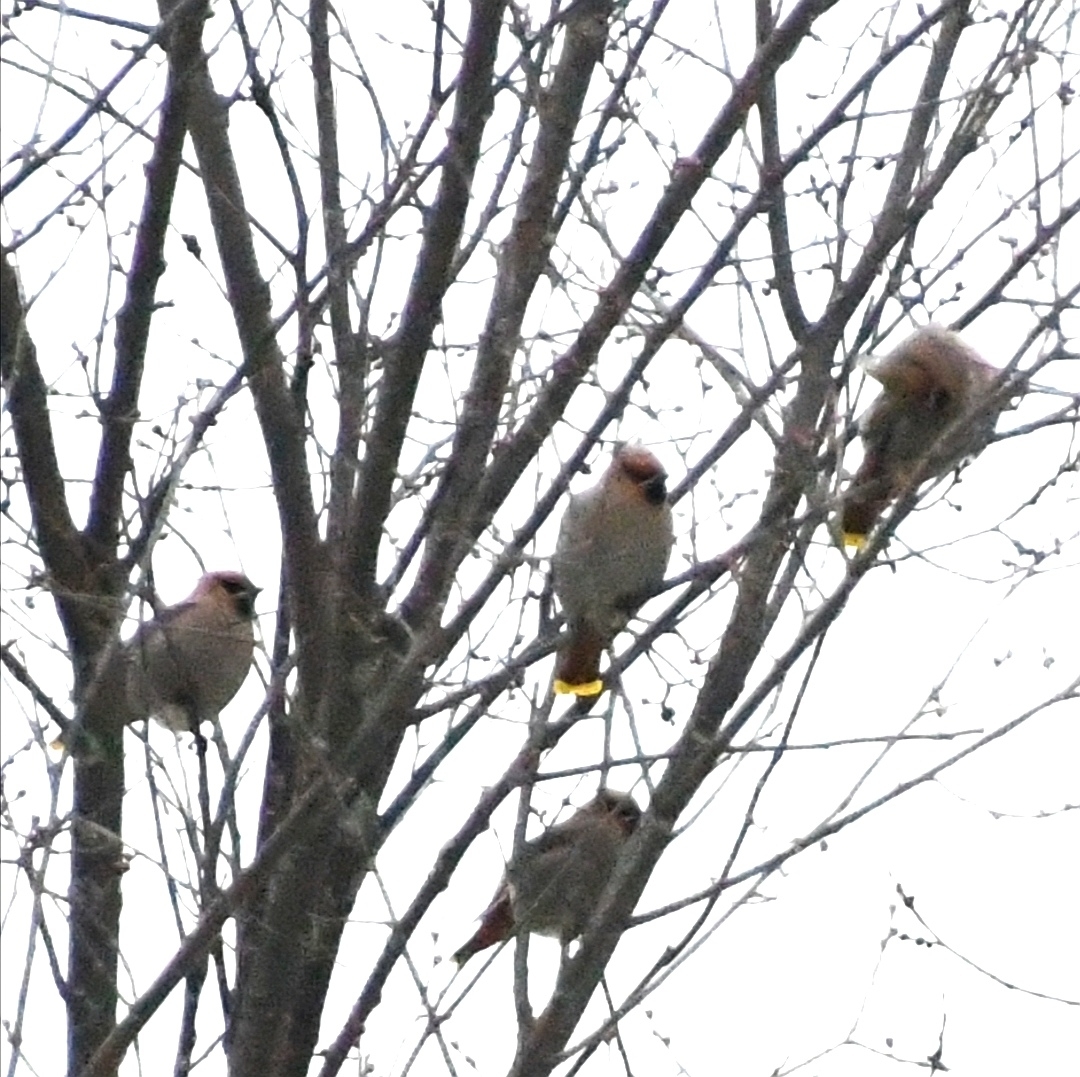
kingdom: Animalia
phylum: Chordata
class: Aves
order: Passeriformes
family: Bombycillidae
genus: Bombycilla
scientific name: Bombycilla garrulus
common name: Bohemian waxwing
